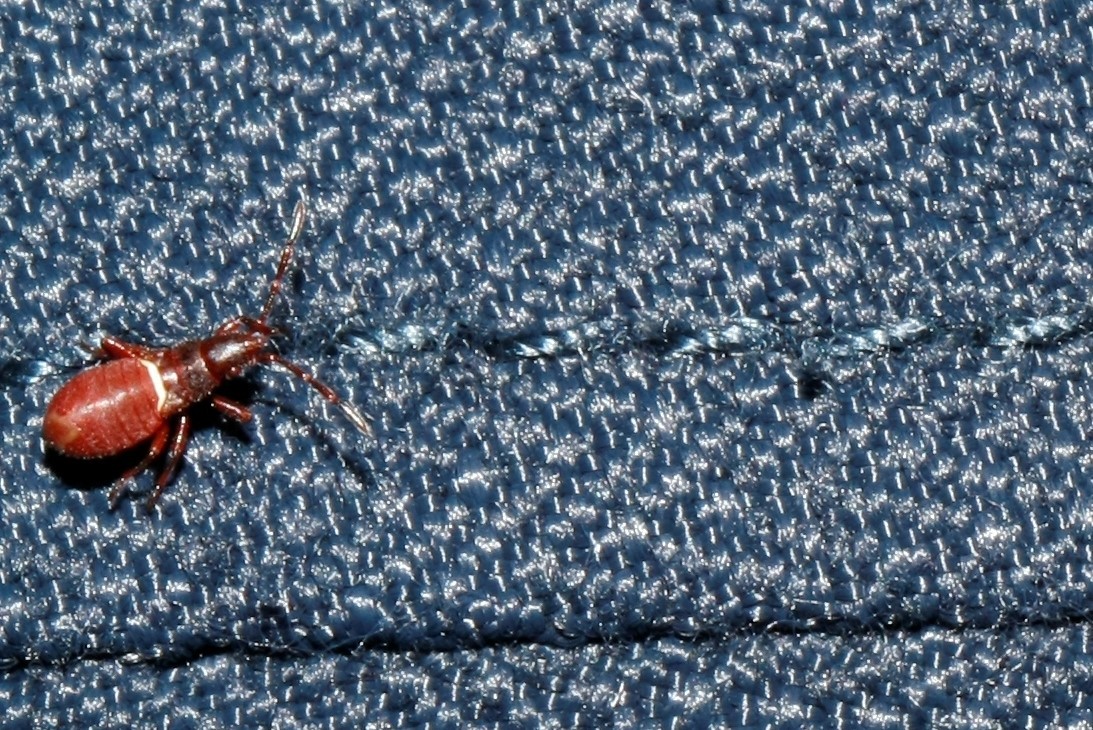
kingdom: Animalia
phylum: Arthropoda
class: Insecta
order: Hemiptera
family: Oxycarenidae
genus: Oxycarenus
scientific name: Oxycarenus lavaterae
